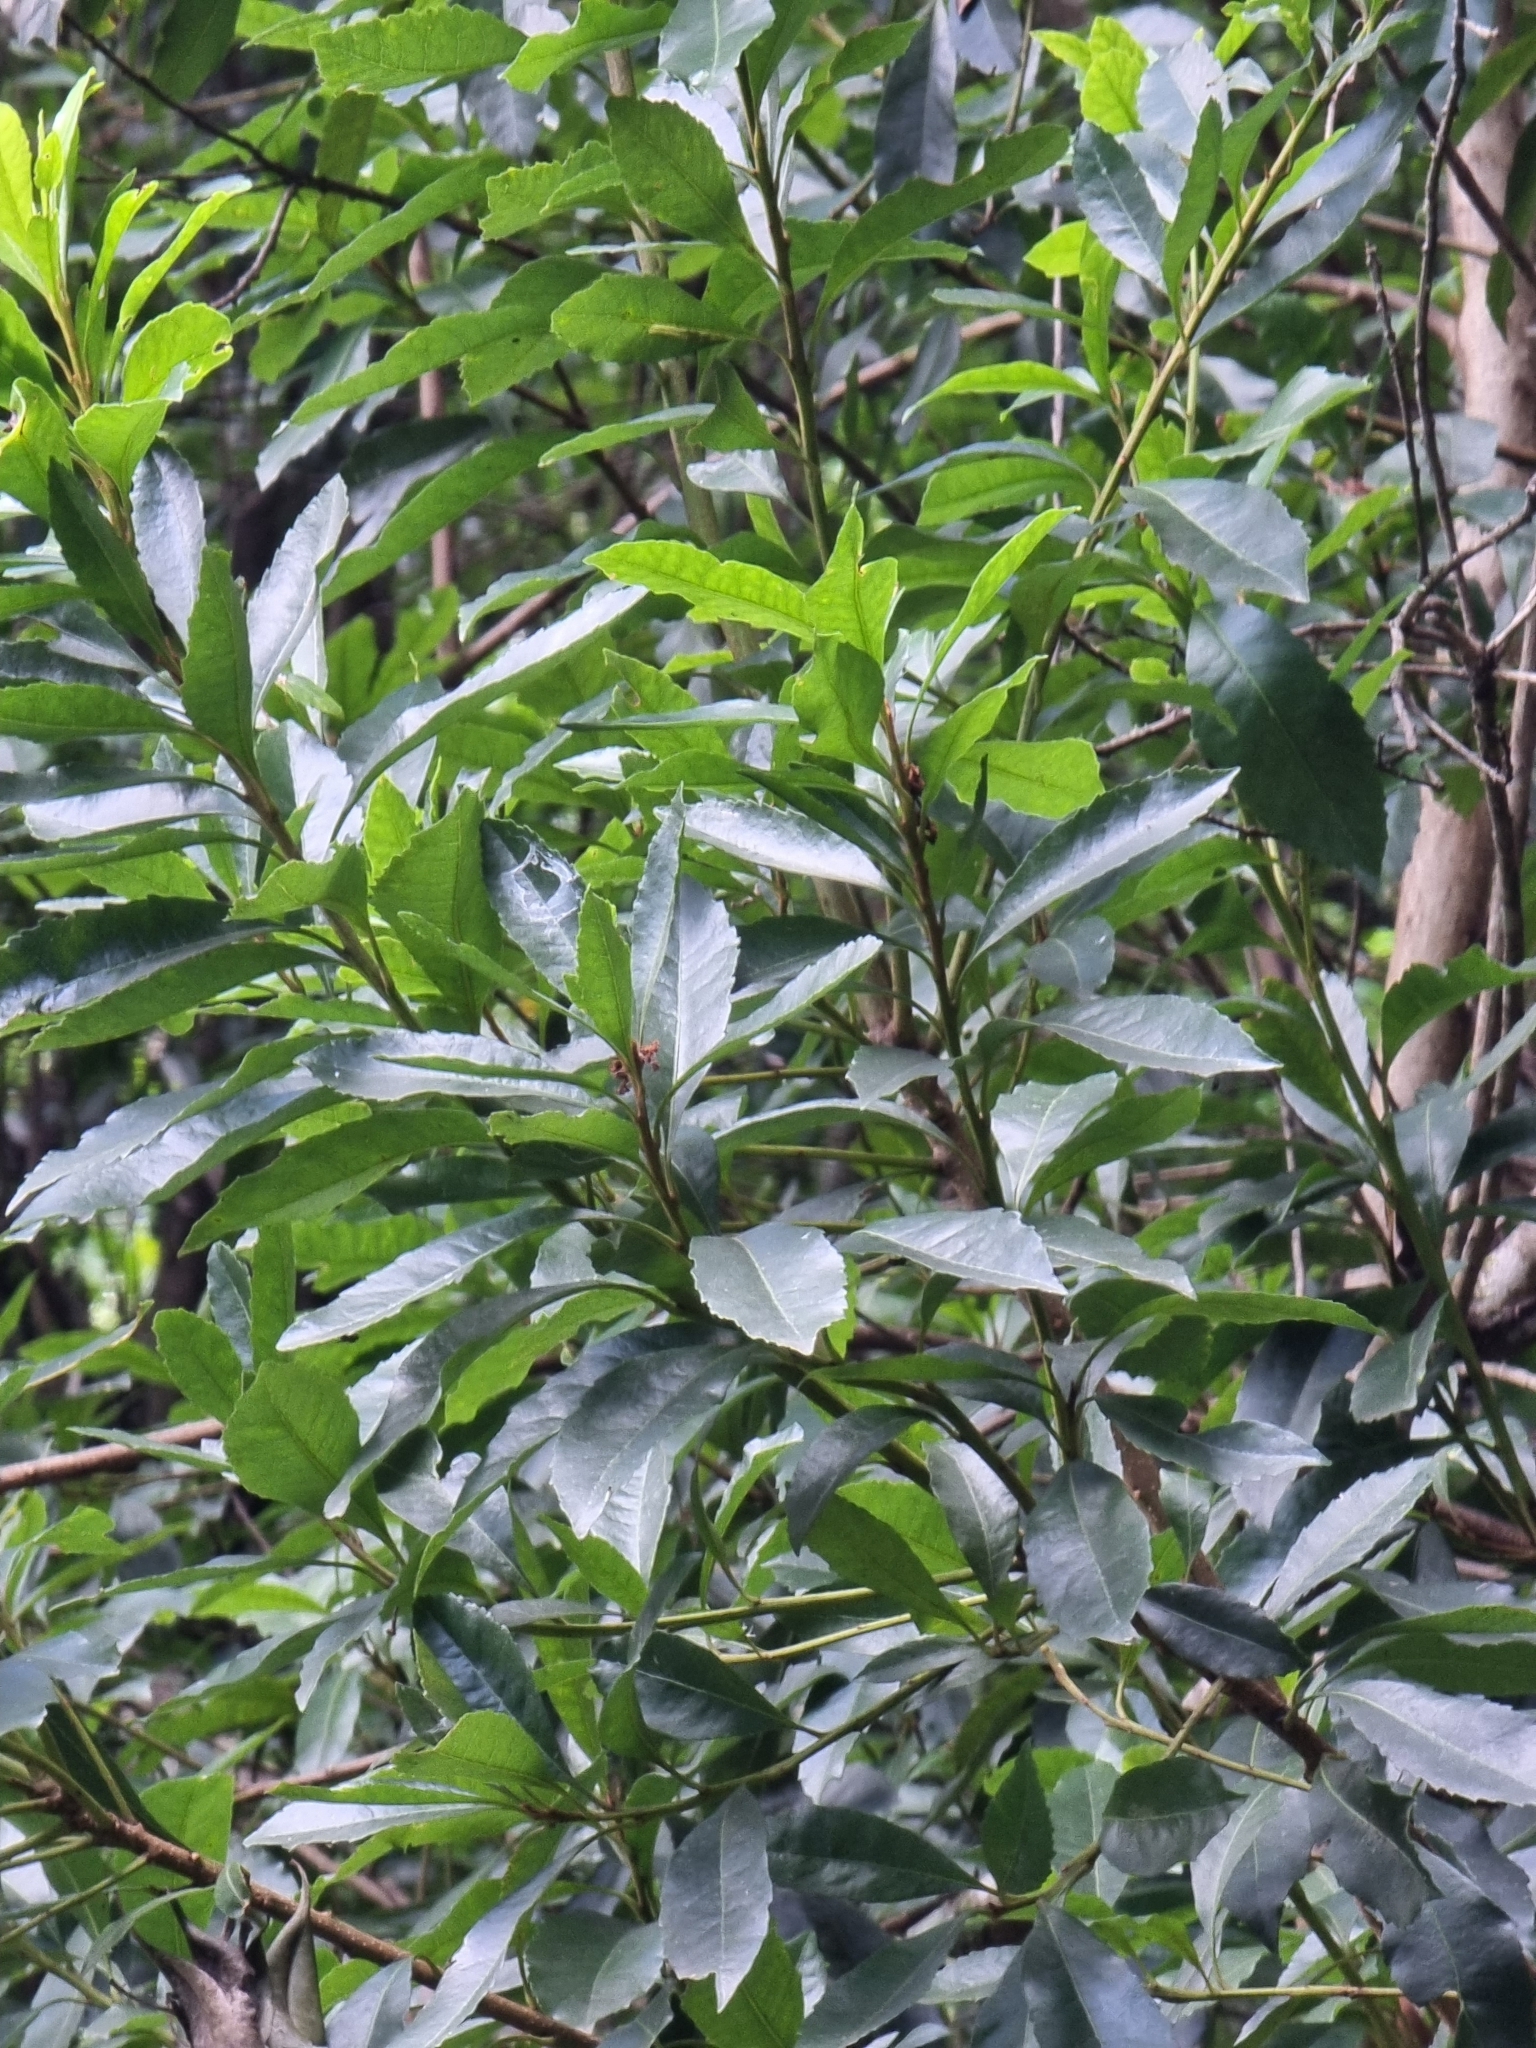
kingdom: Plantae
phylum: Tracheophyta
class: Magnoliopsida
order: Fagales
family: Myricaceae
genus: Morella
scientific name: Morella faya
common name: Firetree
